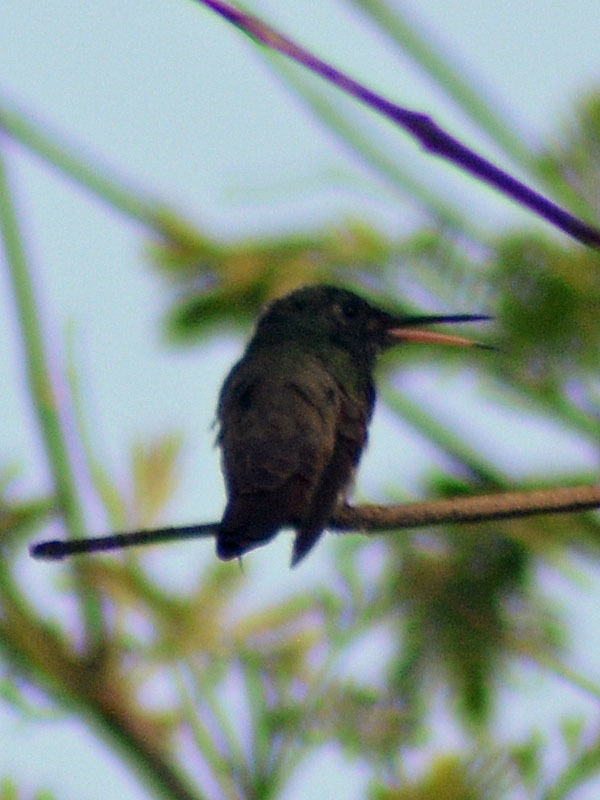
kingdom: Animalia
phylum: Chordata
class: Aves
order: Apodiformes
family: Trochilidae
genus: Saucerottia
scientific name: Saucerottia beryllina
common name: Berylline hummingbird
